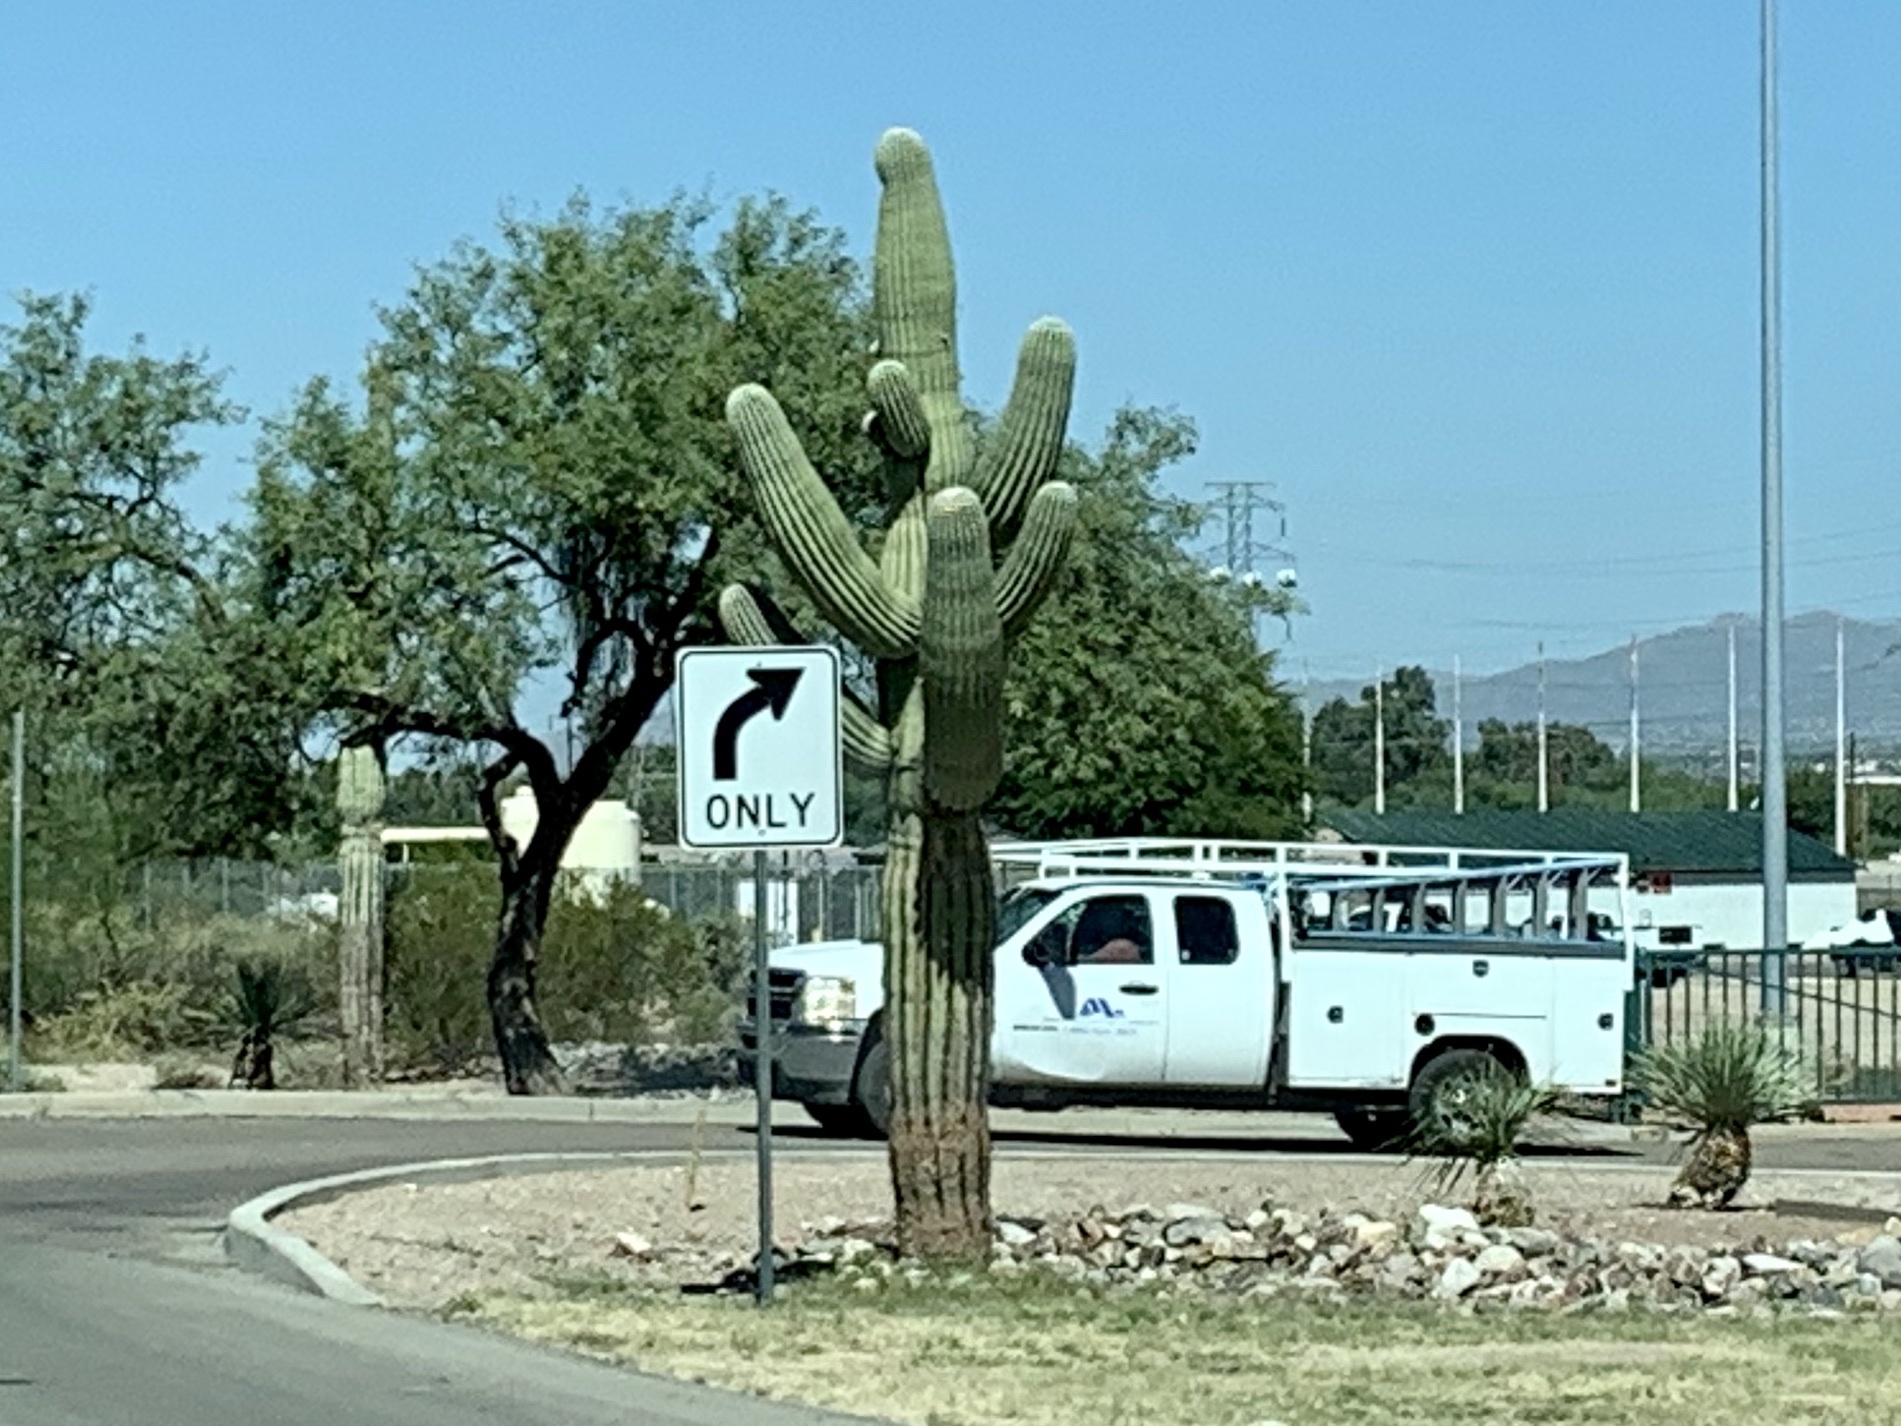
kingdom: Plantae
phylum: Tracheophyta
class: Magnoliopsida
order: Caryophyllales
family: Cactaceae
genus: Carnegiea
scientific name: Carnegiea gigantea
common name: Saguaro
